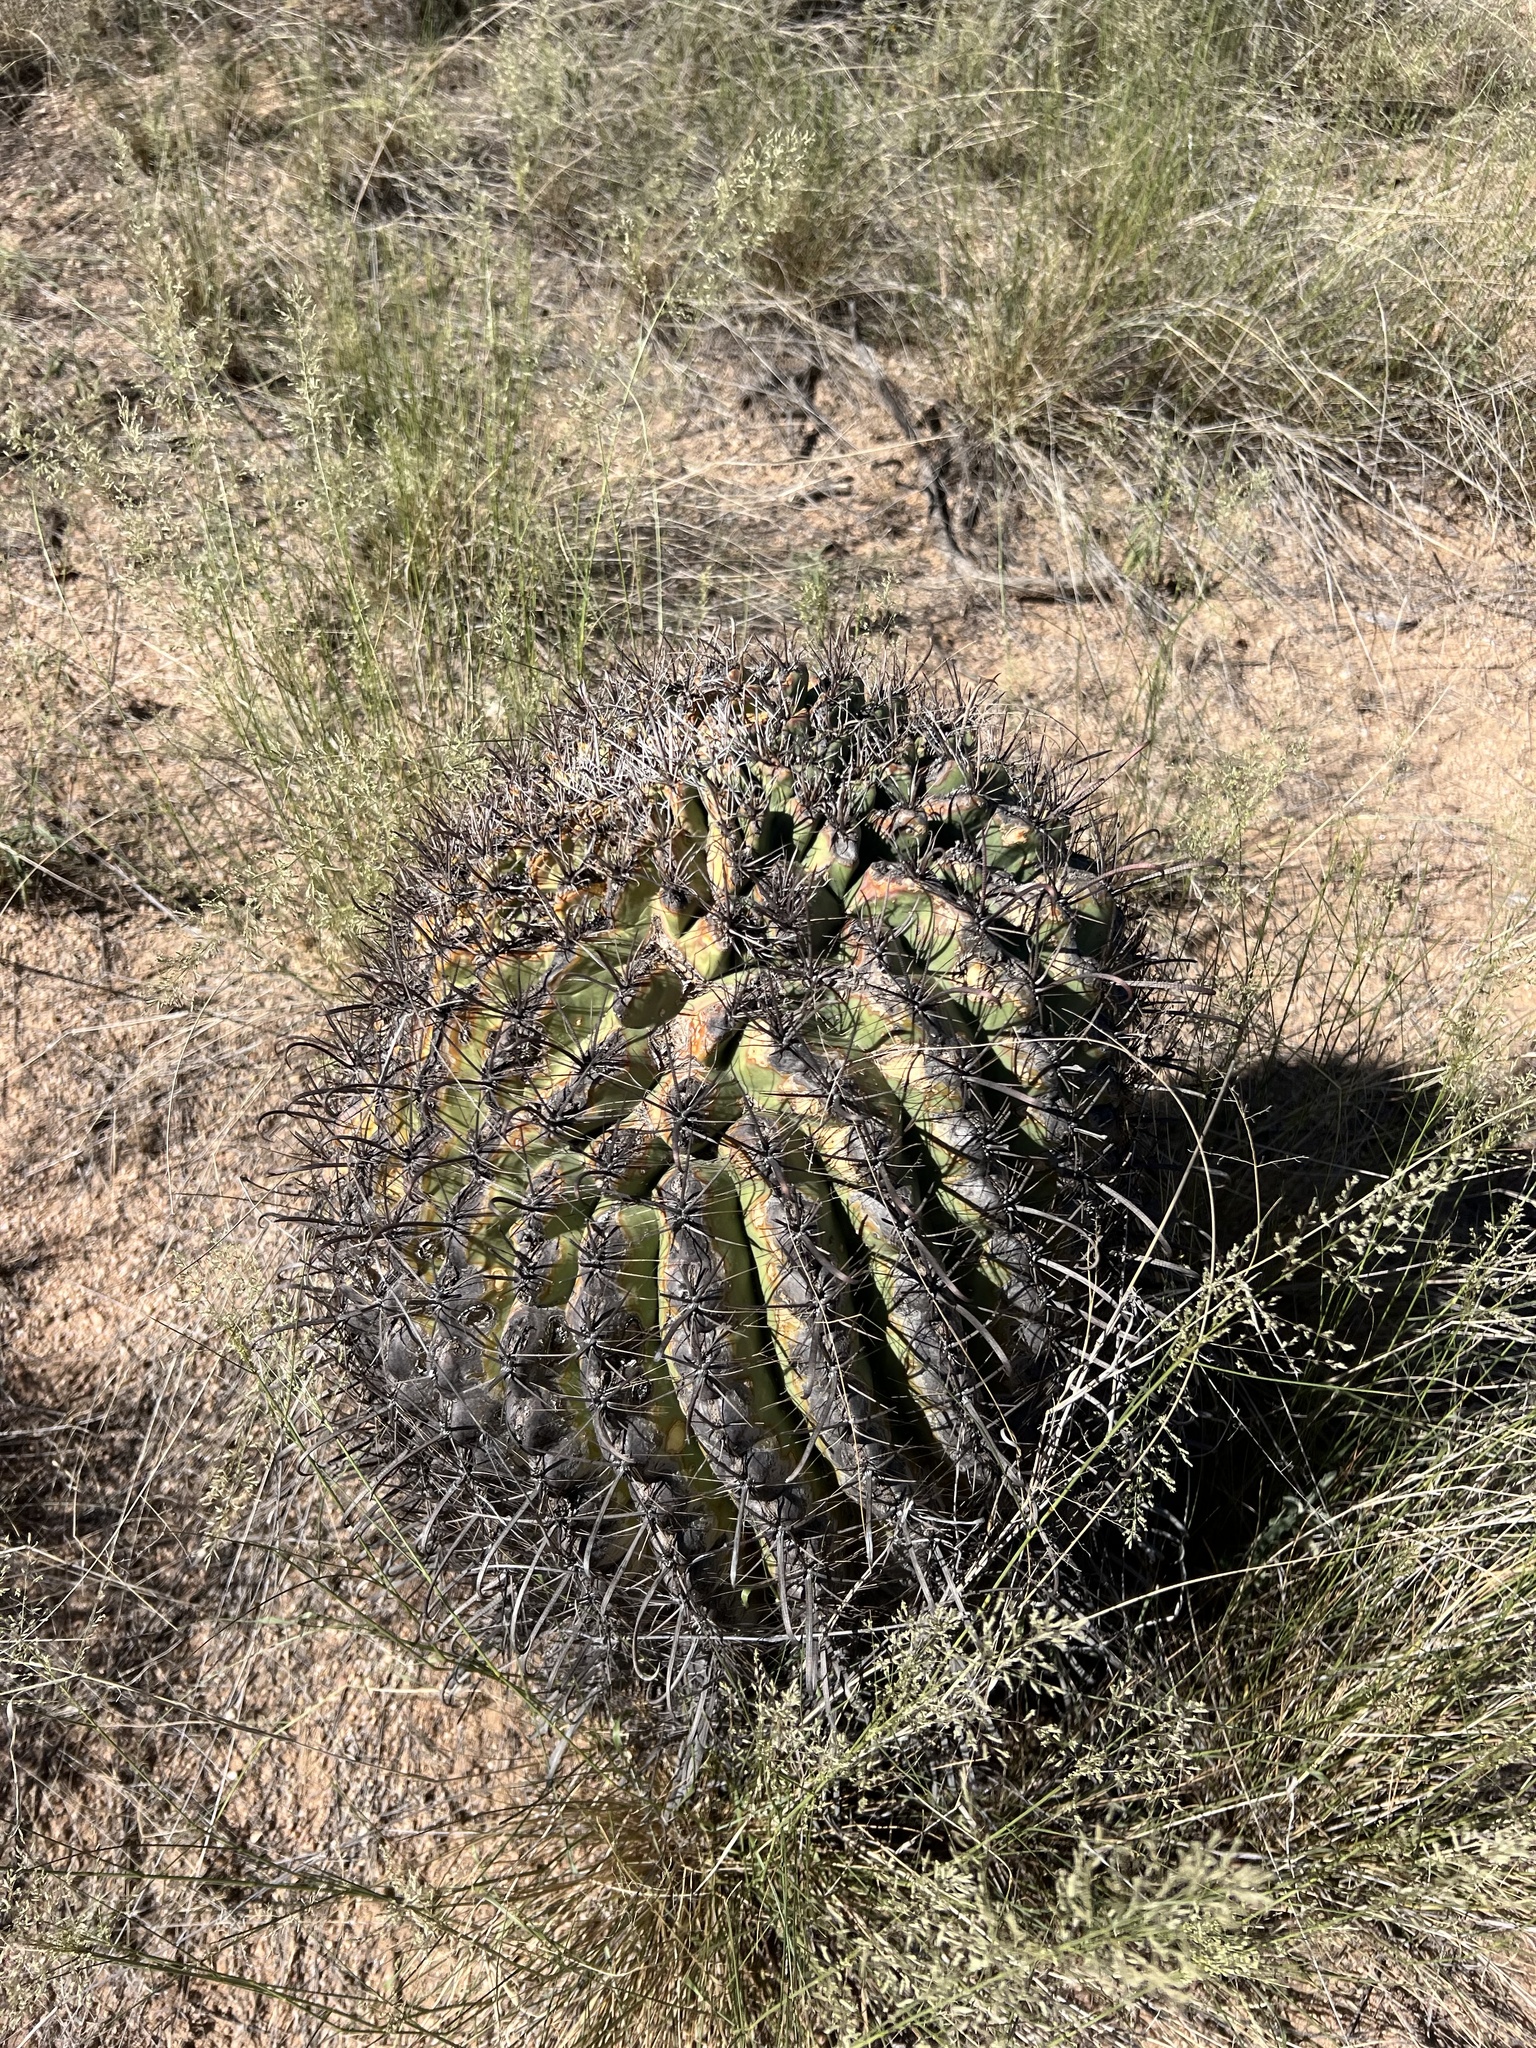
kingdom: Plantae
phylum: Tracheophyta
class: Magnoliopsida
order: Caryophyllales
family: Cactaceae
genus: Ferocactus
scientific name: Ferocactus wislizeni
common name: Candy barrel cactus
